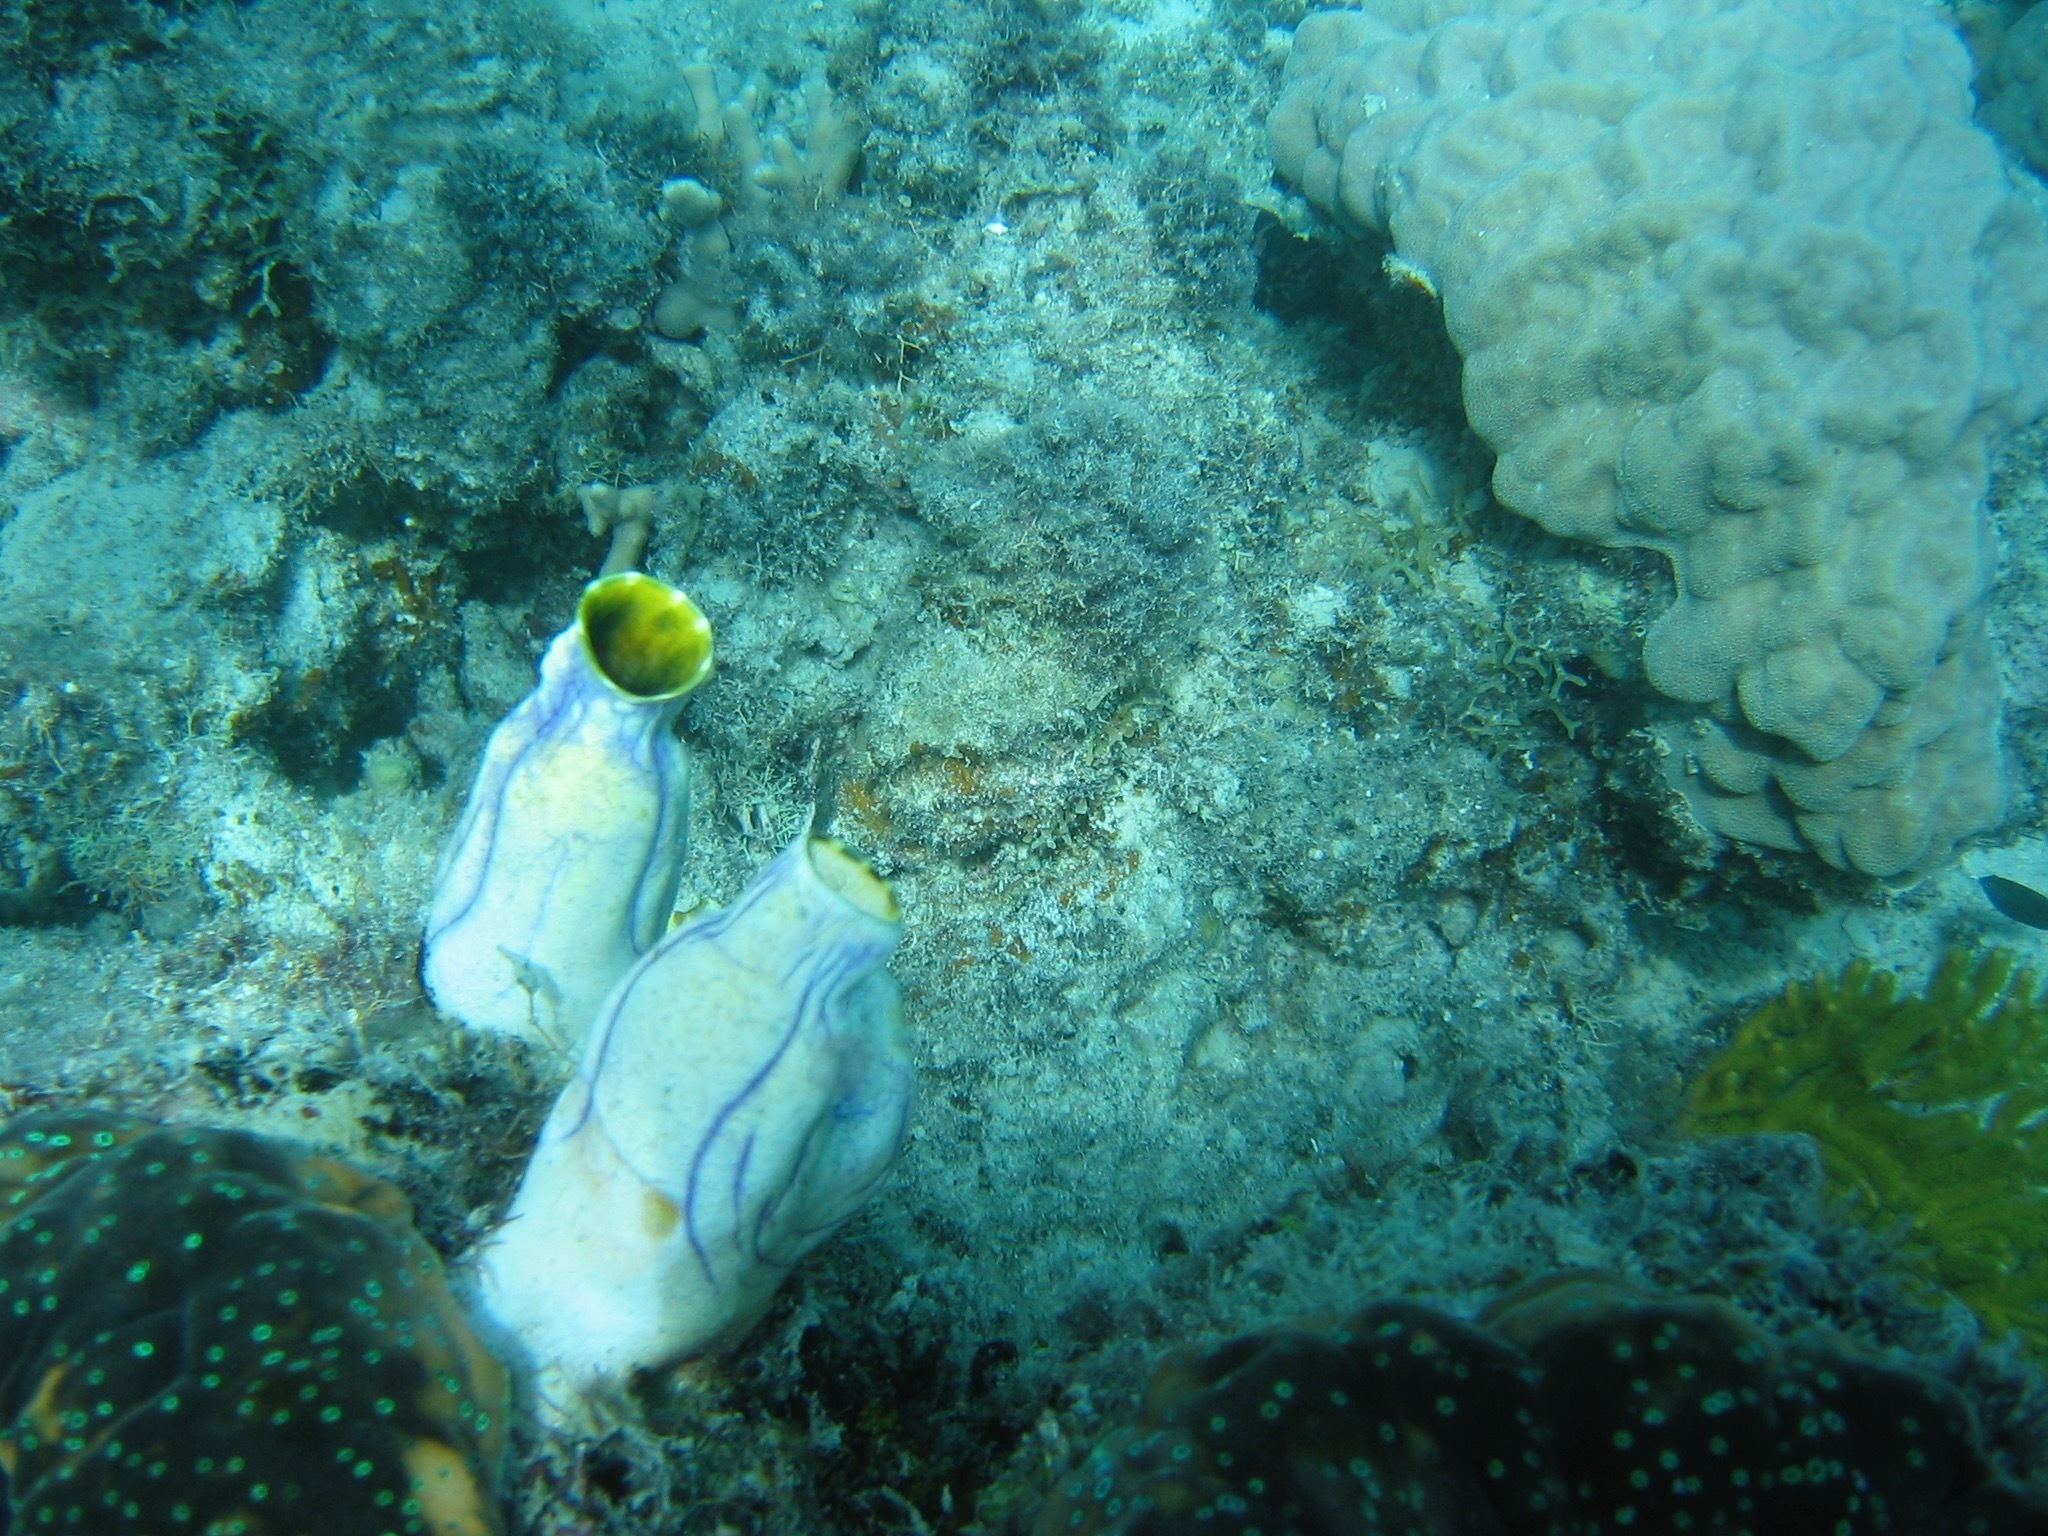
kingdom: Animalia
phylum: Chordata
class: Ascidiacea
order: Stolidobranchia
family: Styelidae
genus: Polycarpa
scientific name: Polycarpa aurata
